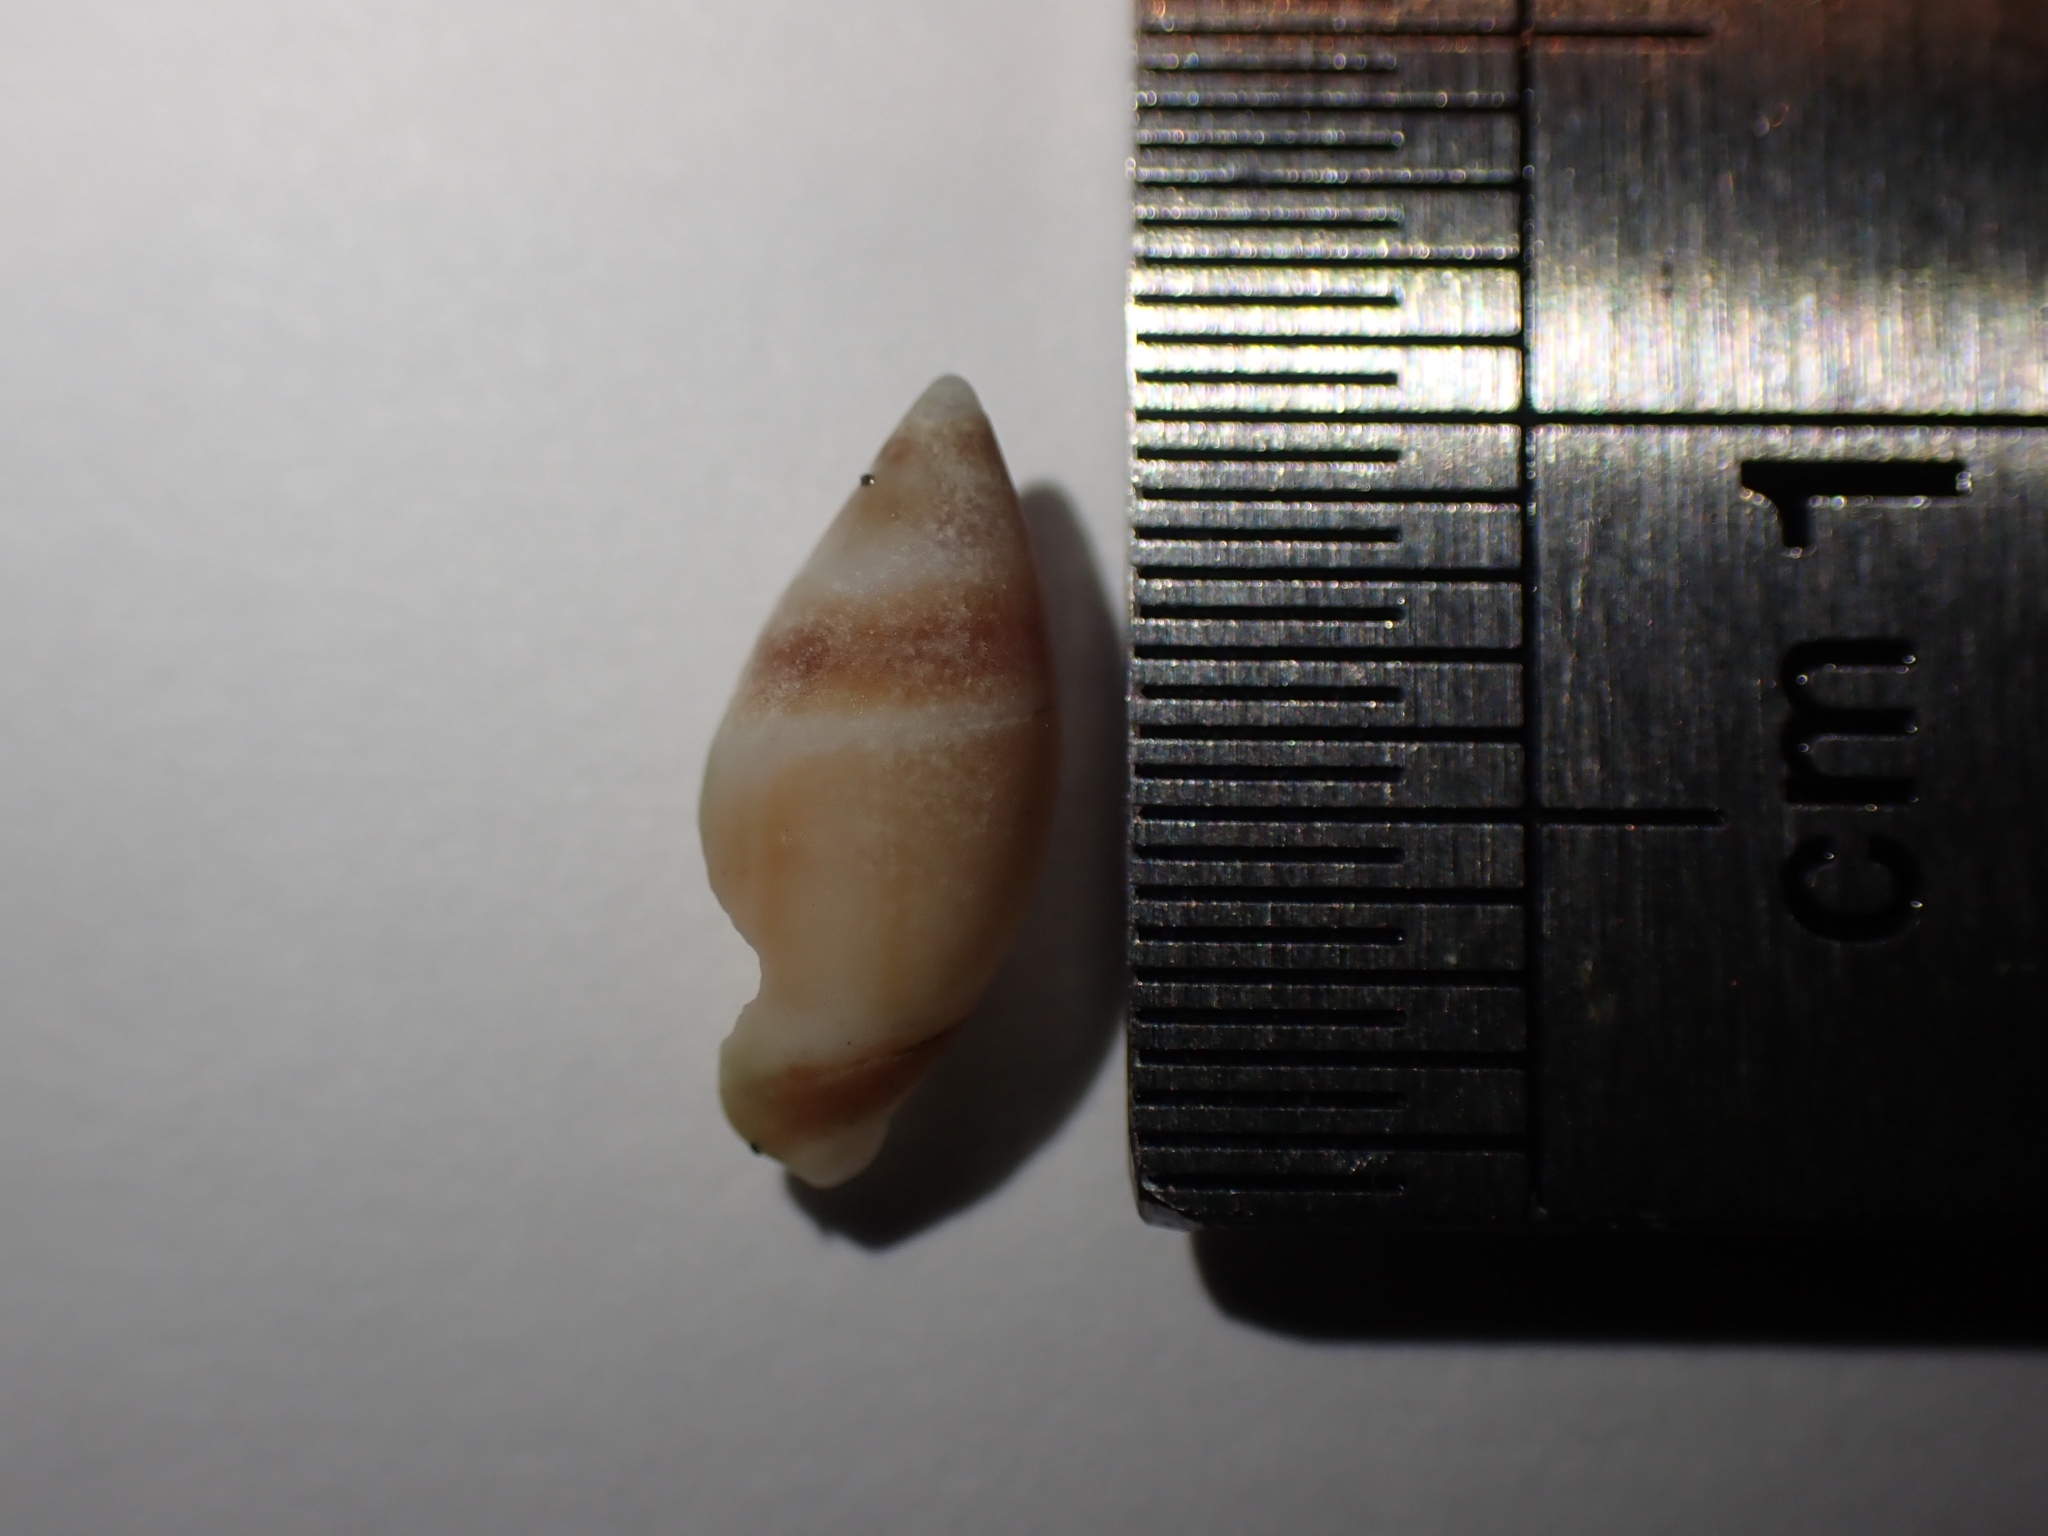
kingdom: Animalia
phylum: Mollusca
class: Gastropoda
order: Neogastropoda
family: Ancillariidae
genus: Amalda
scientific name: Amalda novaezelandiae
